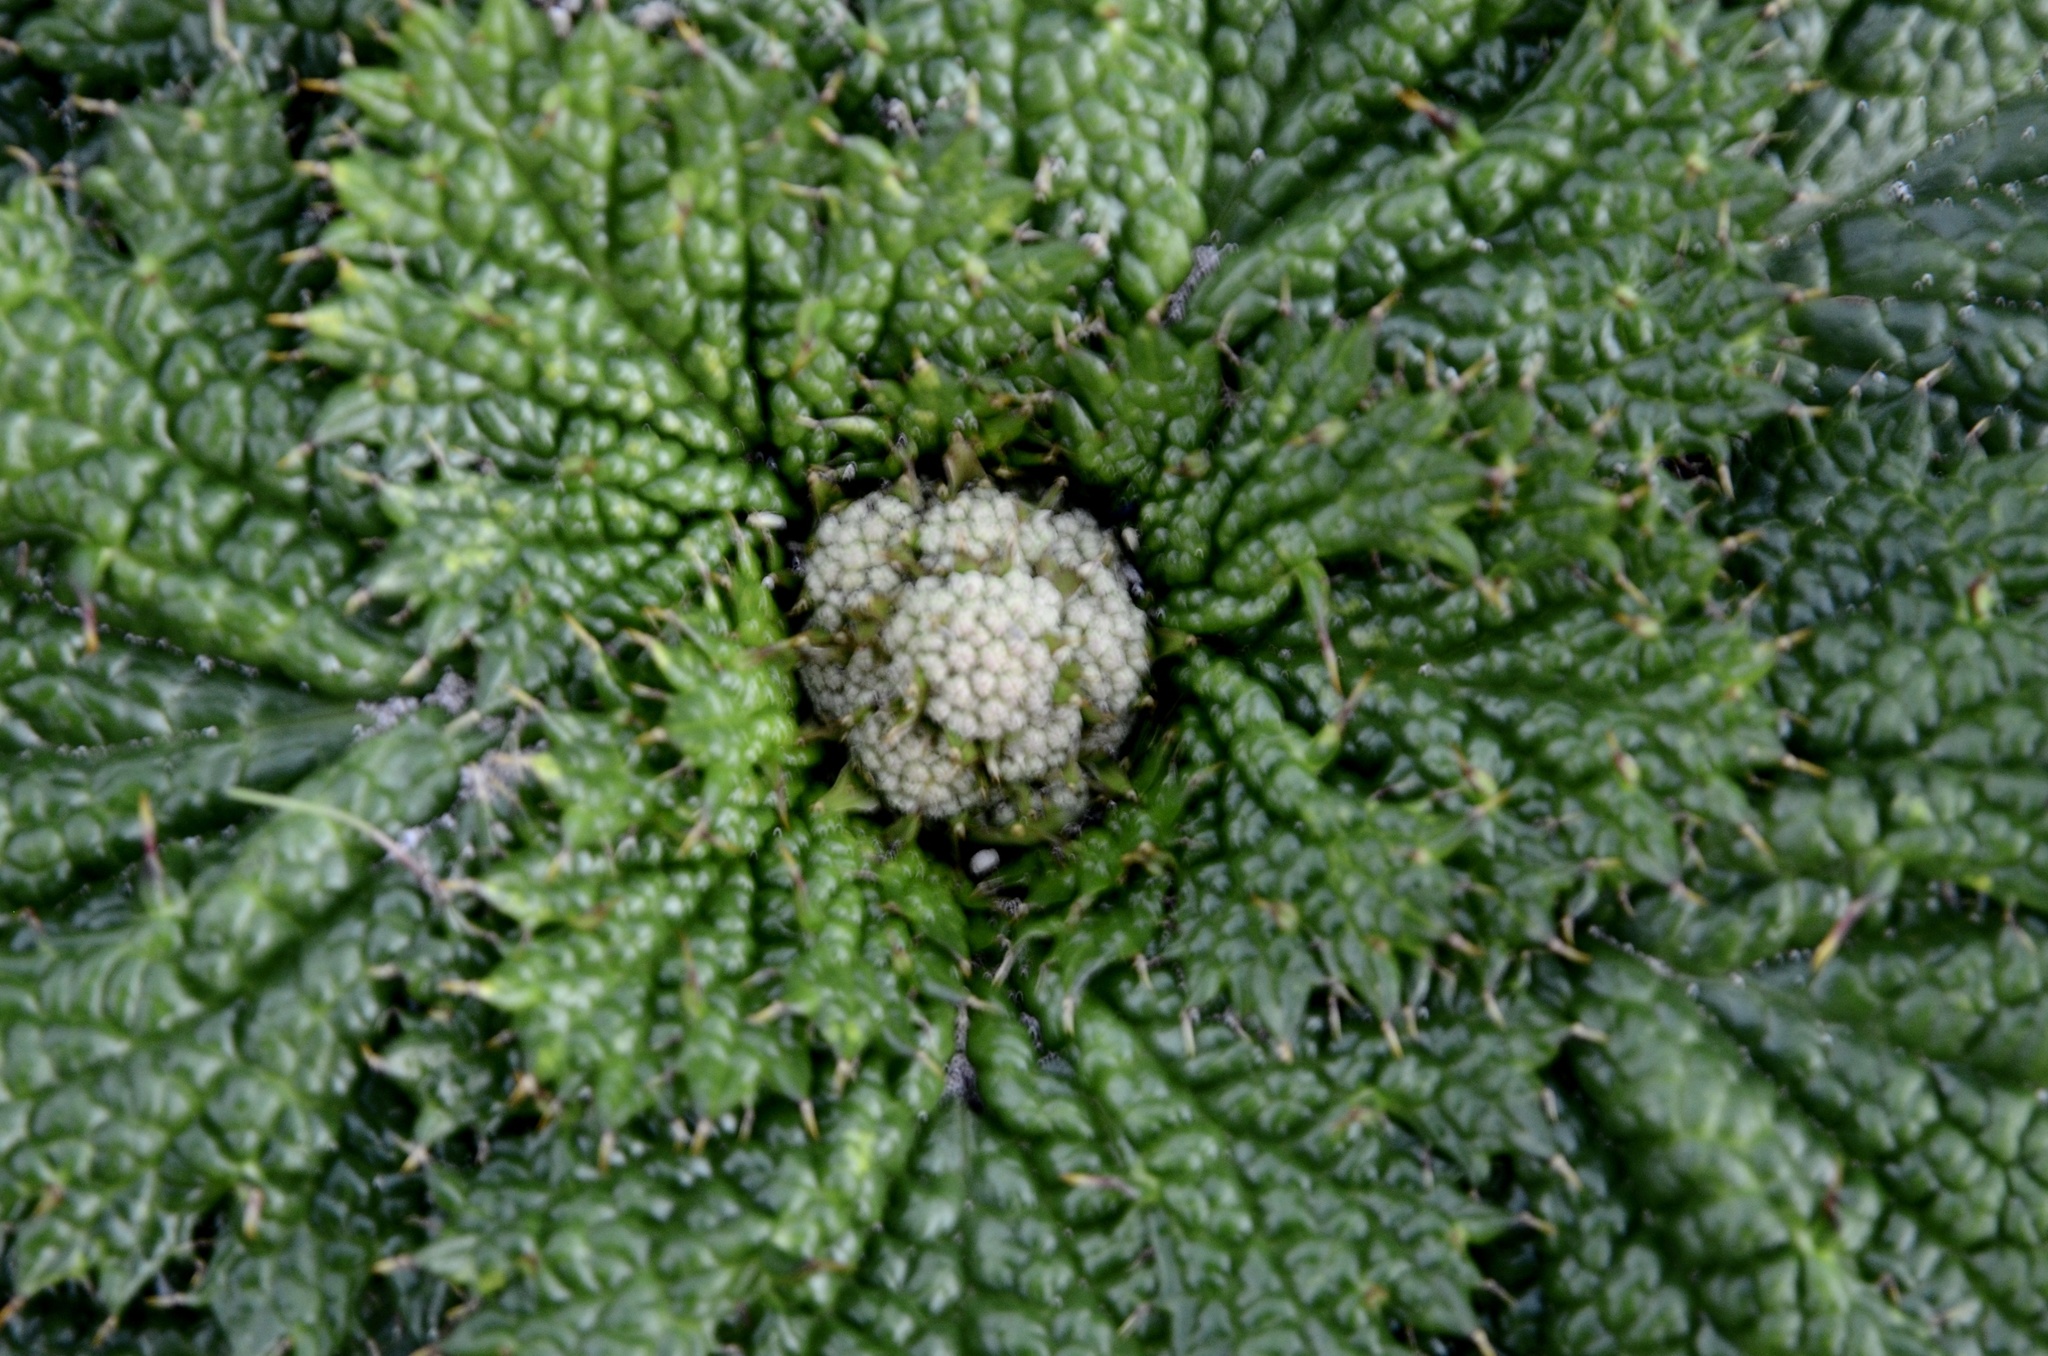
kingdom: Plantae
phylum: Tracheophyta
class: Magnoliopsida
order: Apiales
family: Apiaceae
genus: Arctopus
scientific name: Arctopus echinatus
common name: Platdoring
